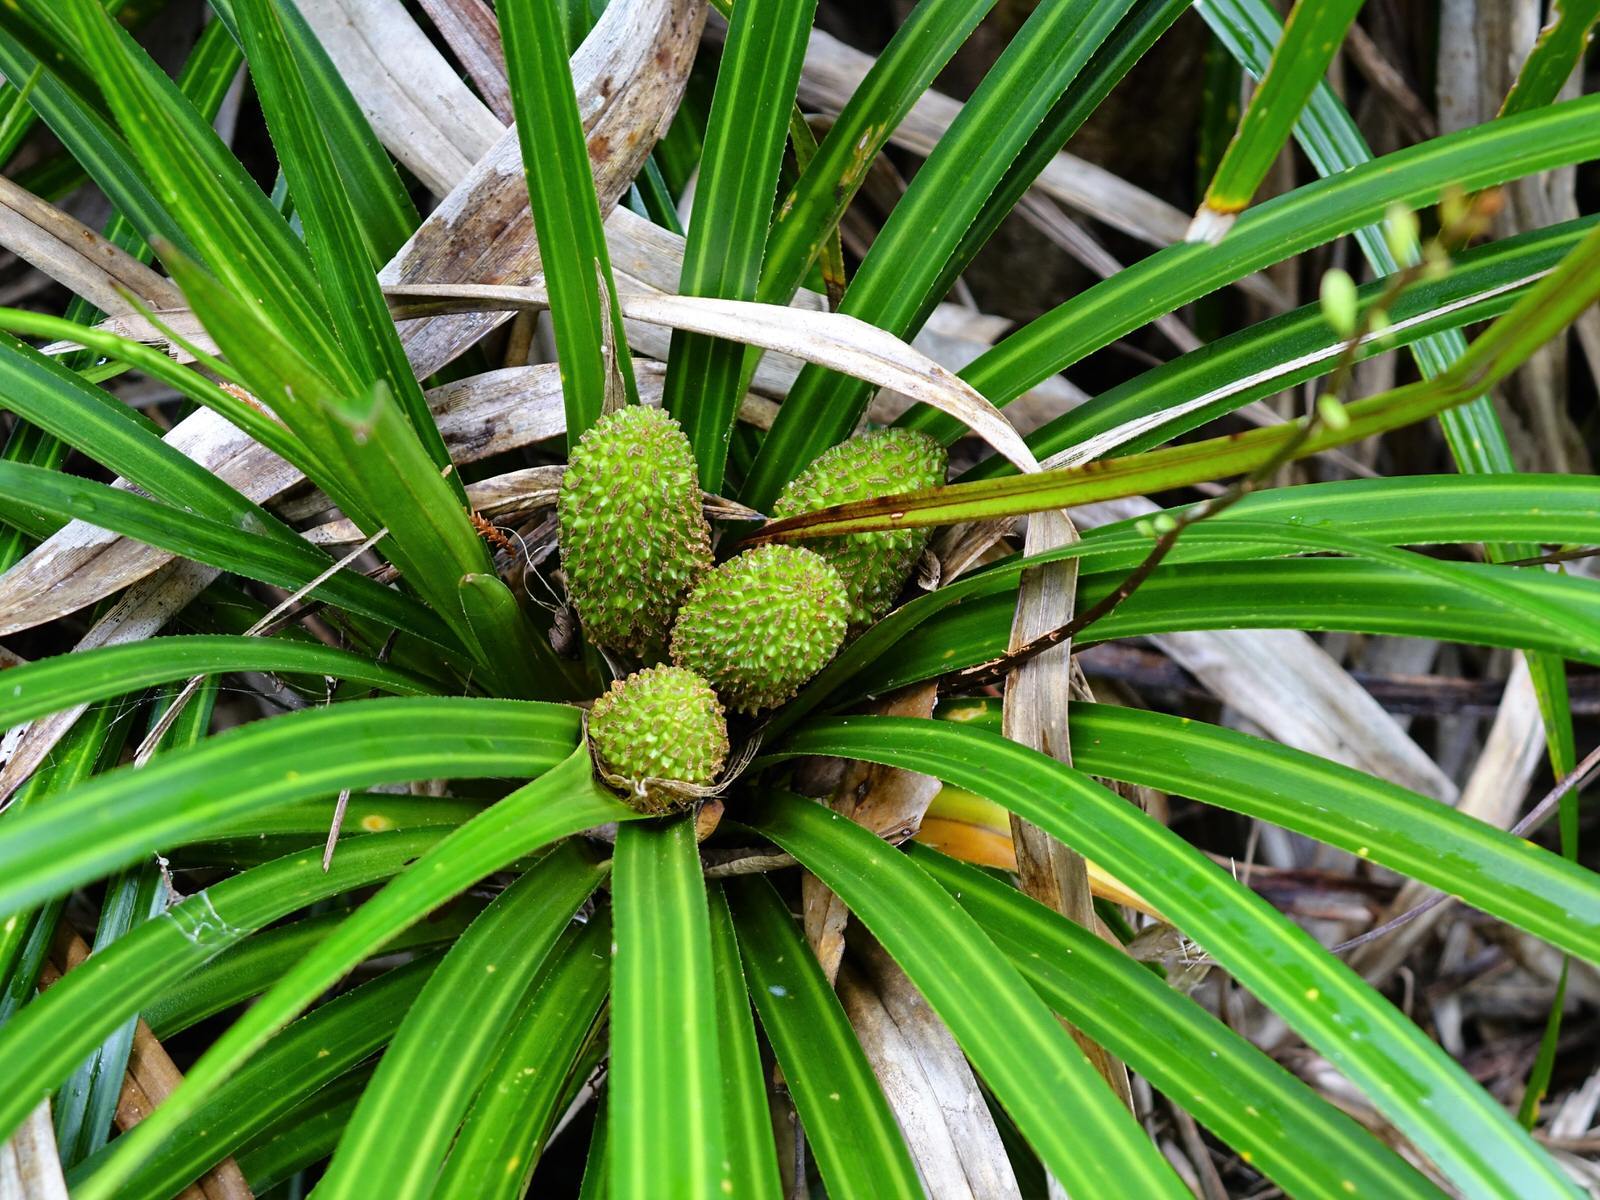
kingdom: Plantae
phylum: Tracheophyta
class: Liliopsida
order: Pandanales
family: Pandanaceae
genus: Freycinetia
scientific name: Freycinetia banksii
